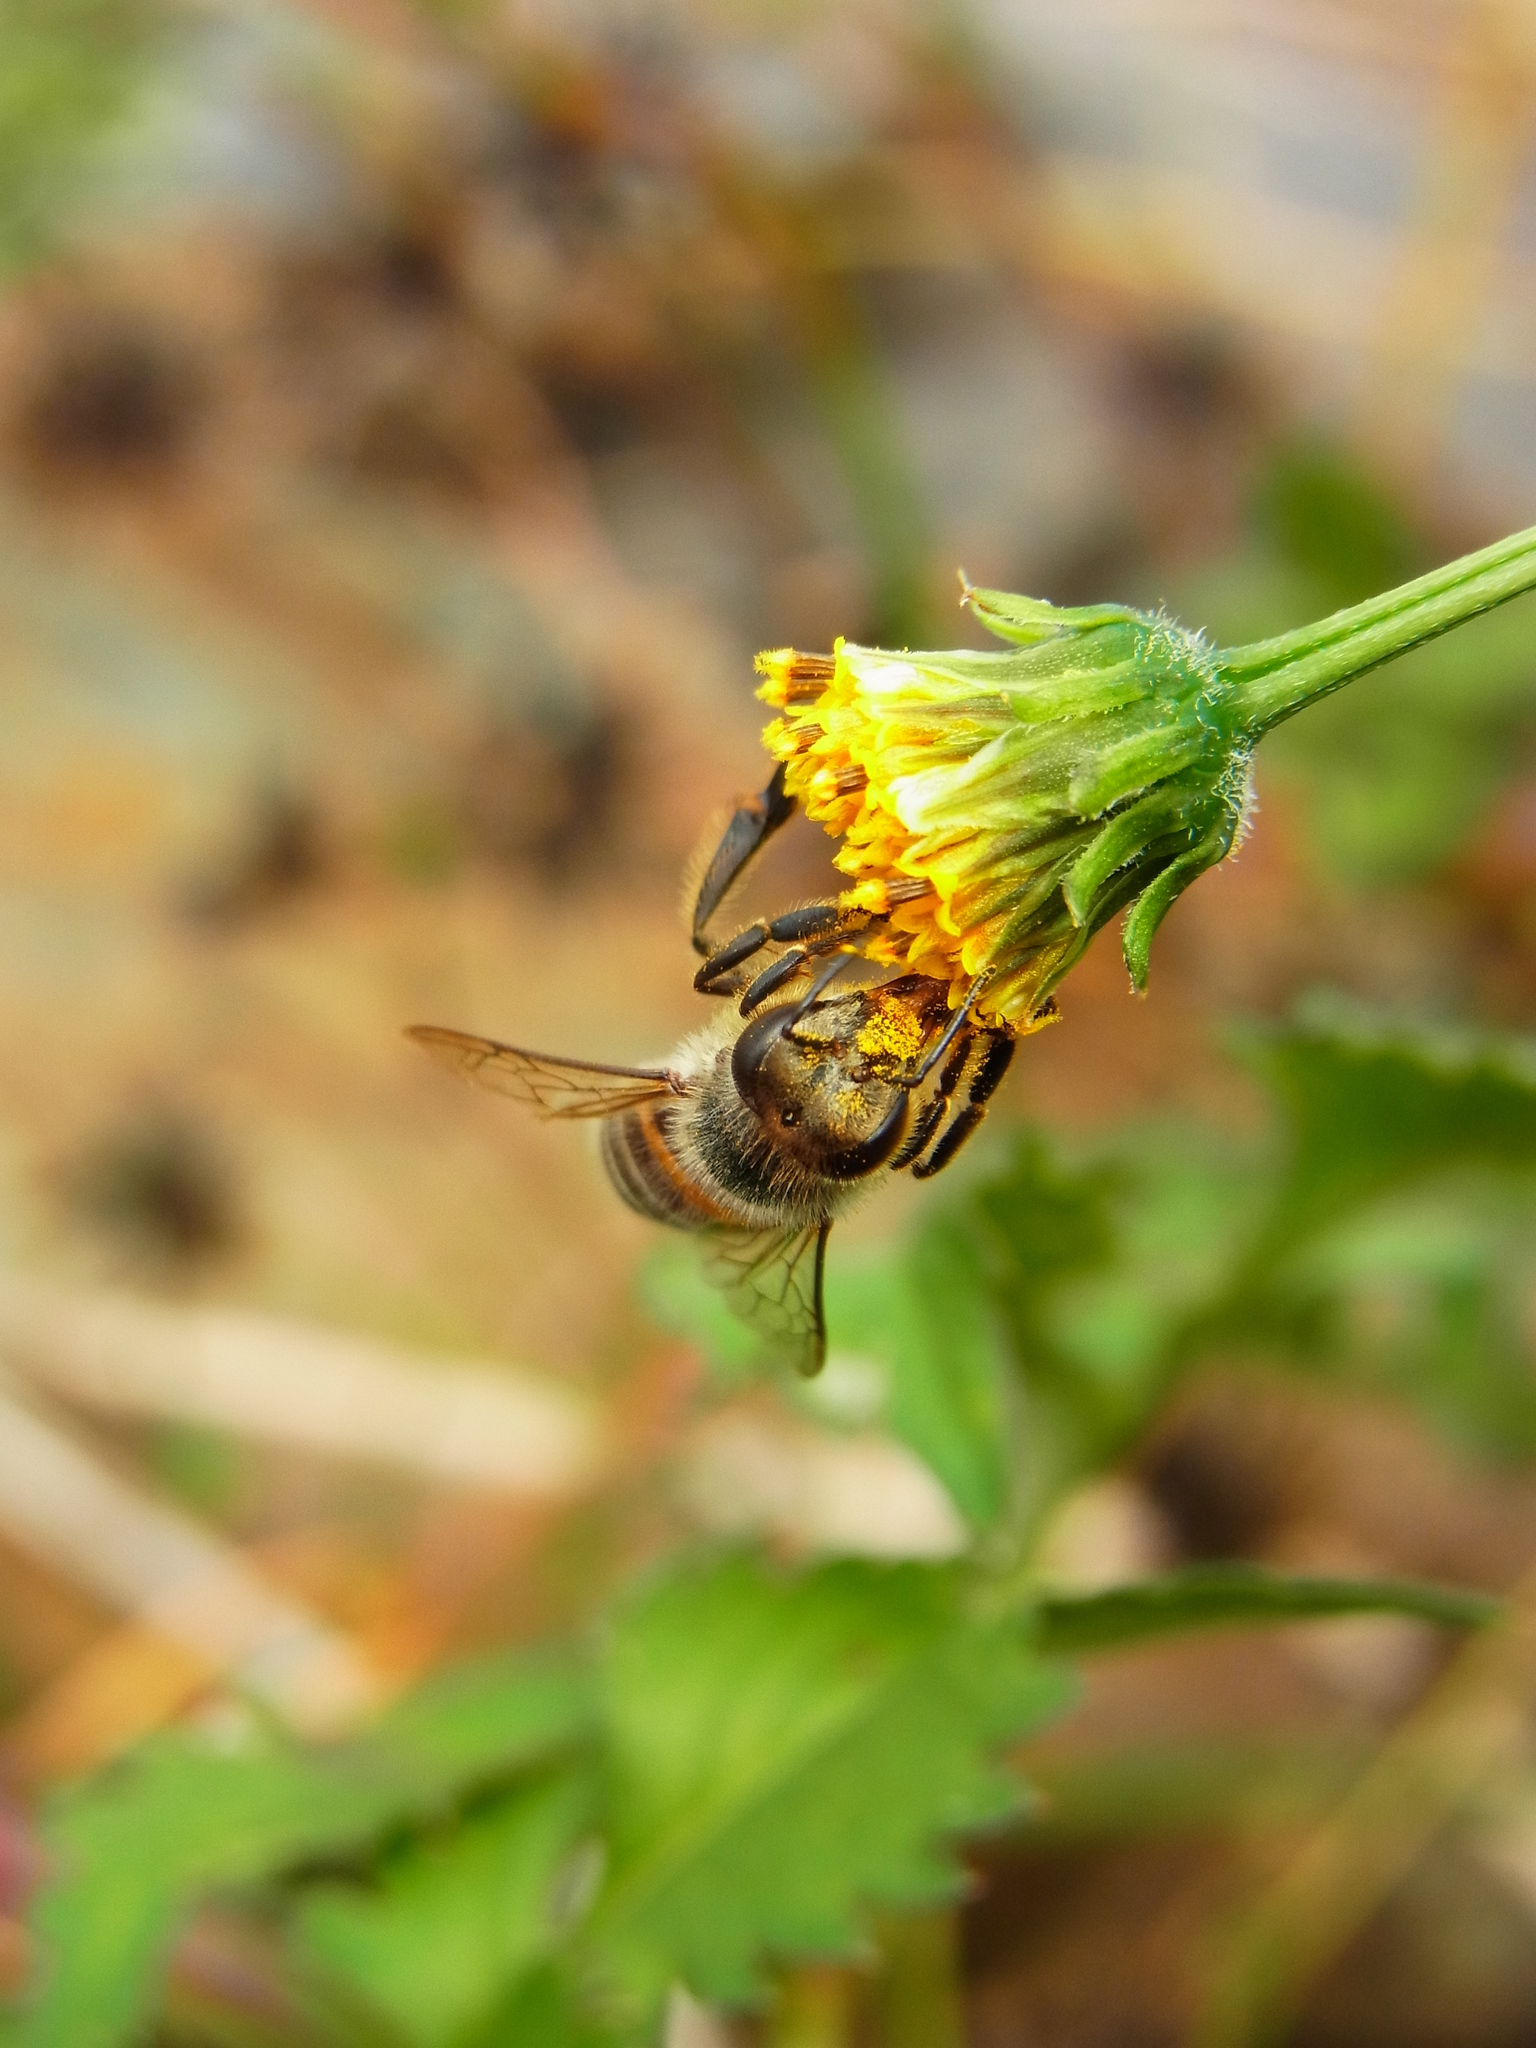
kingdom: Animalia
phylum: Arthropoda
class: Insecta
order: Hymenoptera
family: Apidae
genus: Apis
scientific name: Apis
